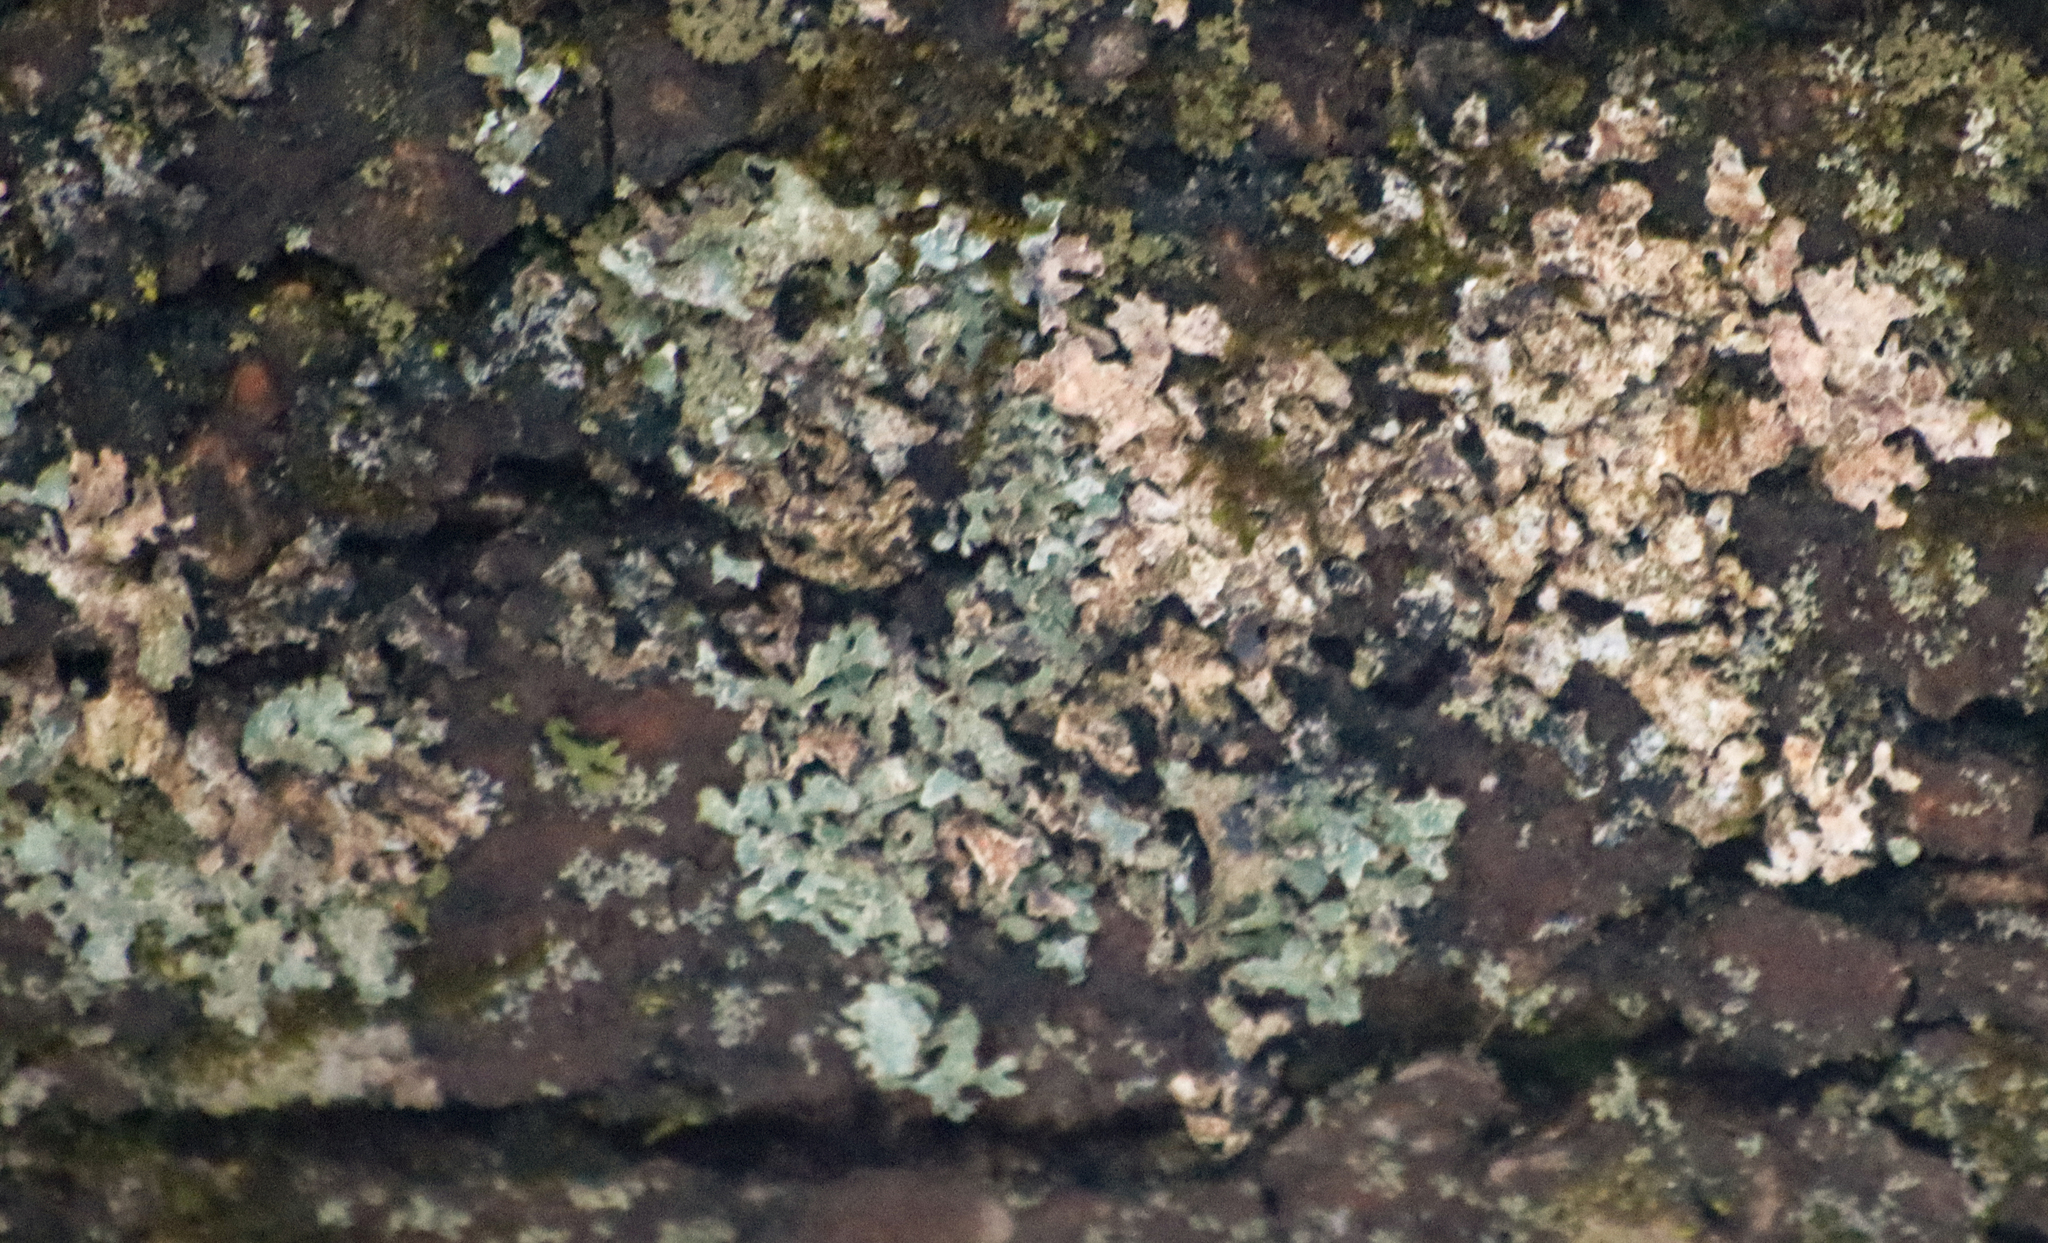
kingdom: Fungi
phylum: Ascomycota
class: Lecanoromycetes
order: Lecanorales
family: Parmeliaceae
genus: Parmelia
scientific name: Parmelia sulcata
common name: Netted shield lichen
